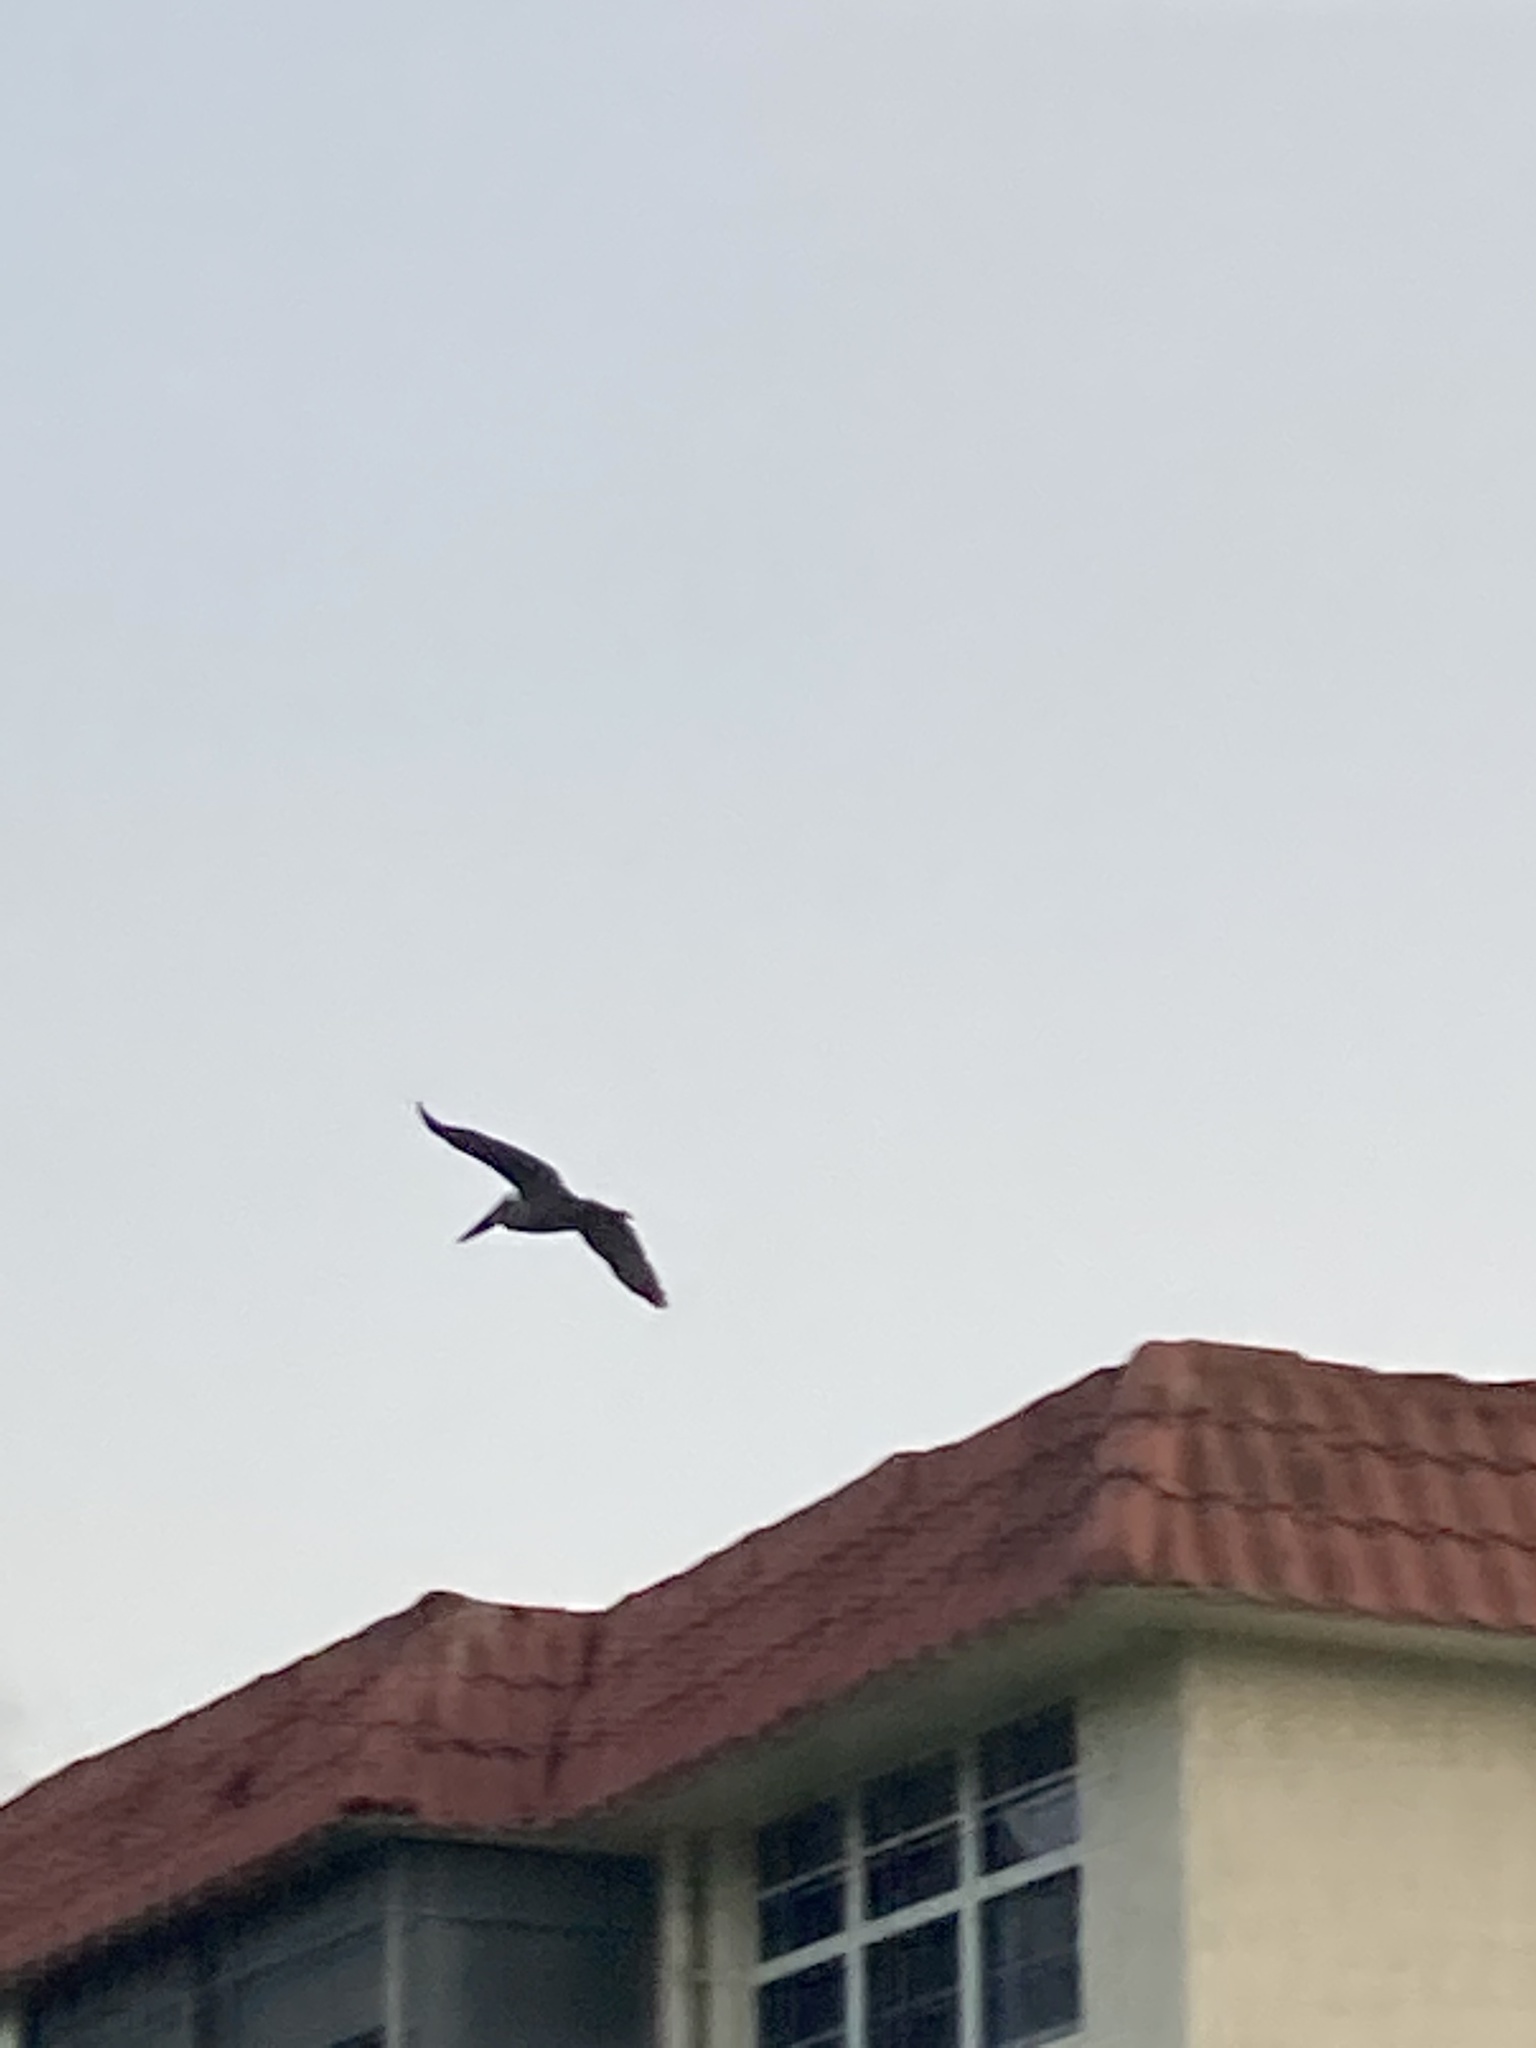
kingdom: Animalia
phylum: Chordata
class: Aves
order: Pelecaniformes
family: Pelecanidae
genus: Pelecanus
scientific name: Pelecanus occidentalis
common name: Brown pelican
